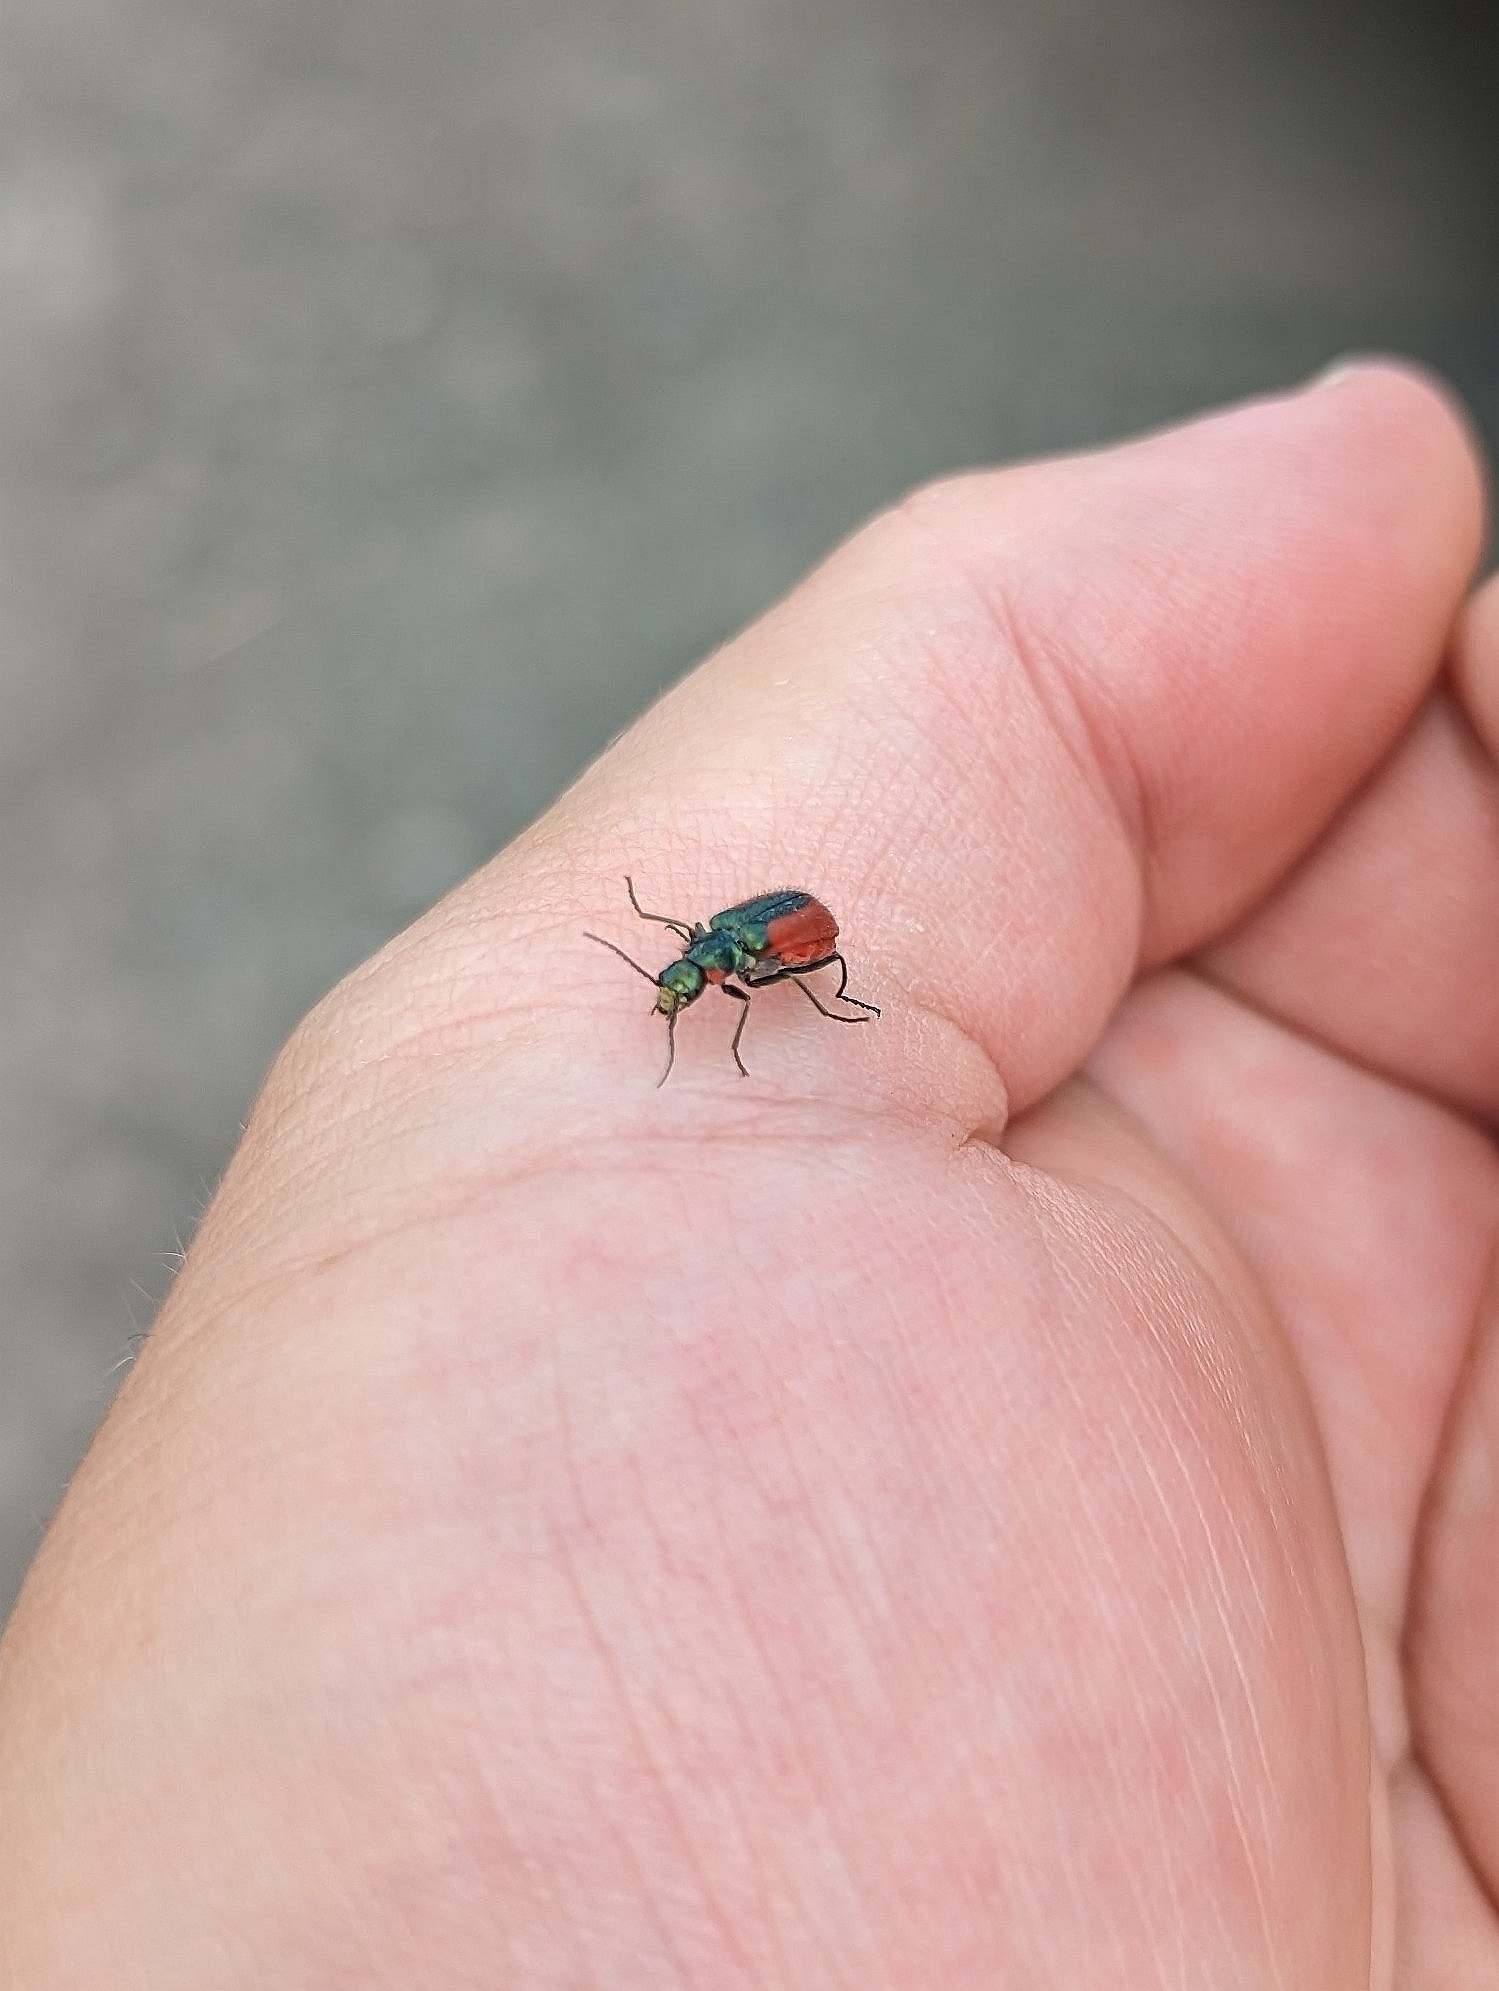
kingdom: Animalia
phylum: Arthropoda
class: Insecta
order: Coleoptera
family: Melyridae
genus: Malachius
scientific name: Malachius aeneus
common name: Scarlet malachite beetle
